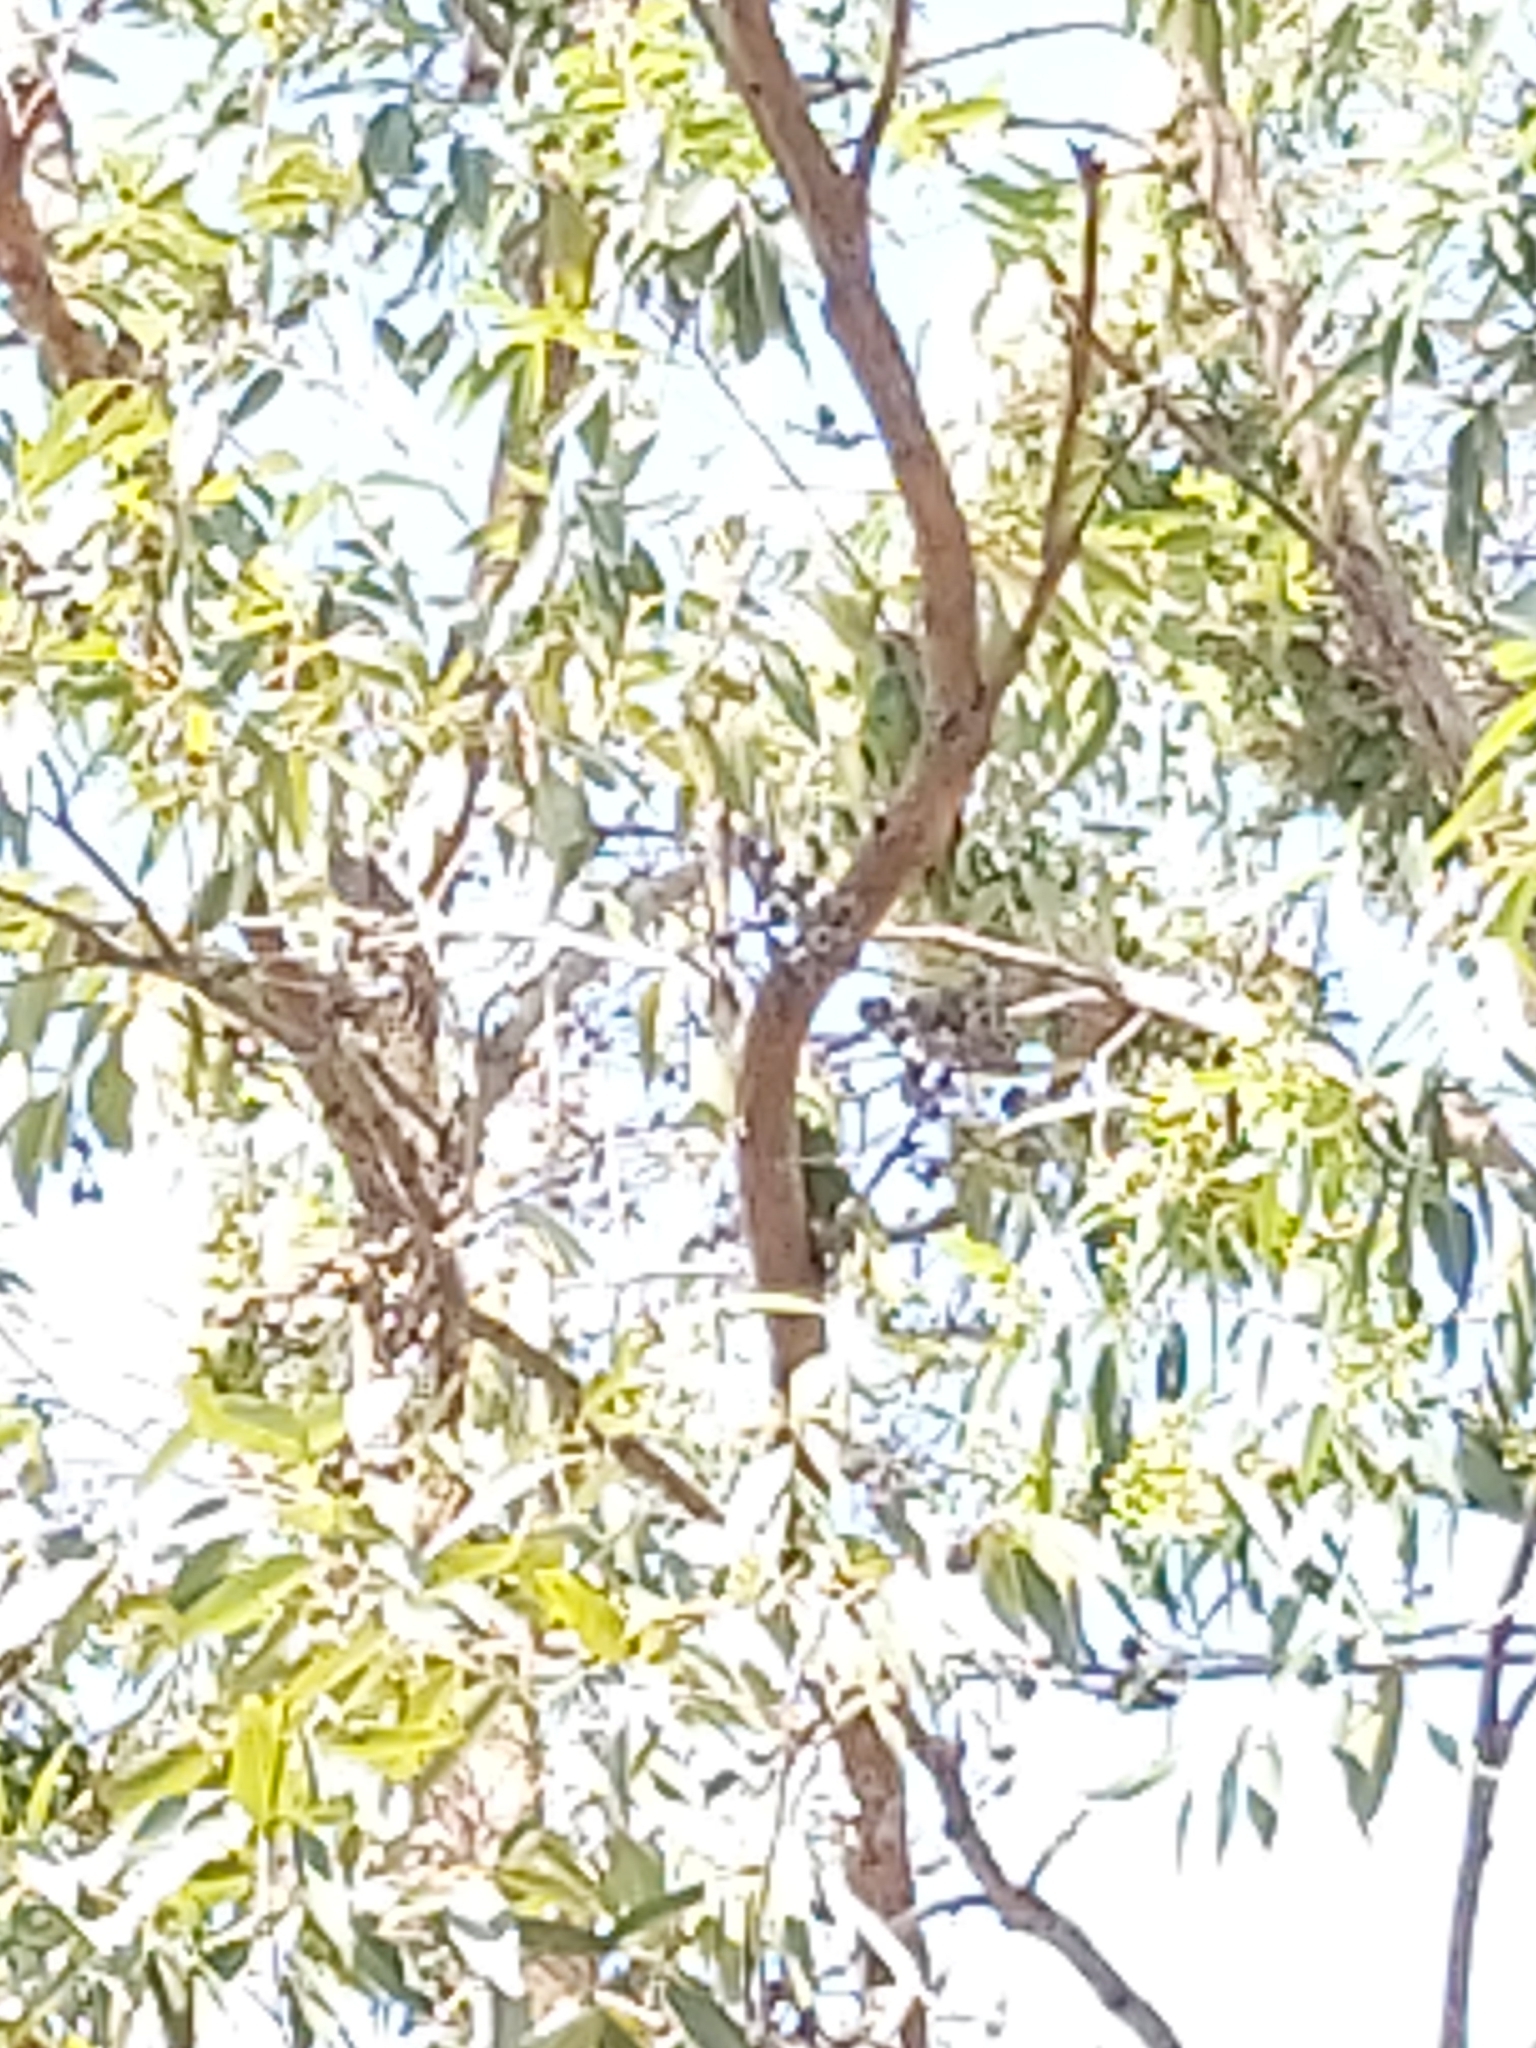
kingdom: Animalia
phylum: Chordata
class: Aves
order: Psittaciformes
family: Psittacidae
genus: Glossopsitta
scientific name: Glossopsitta concinna
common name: Musk lorikeet
